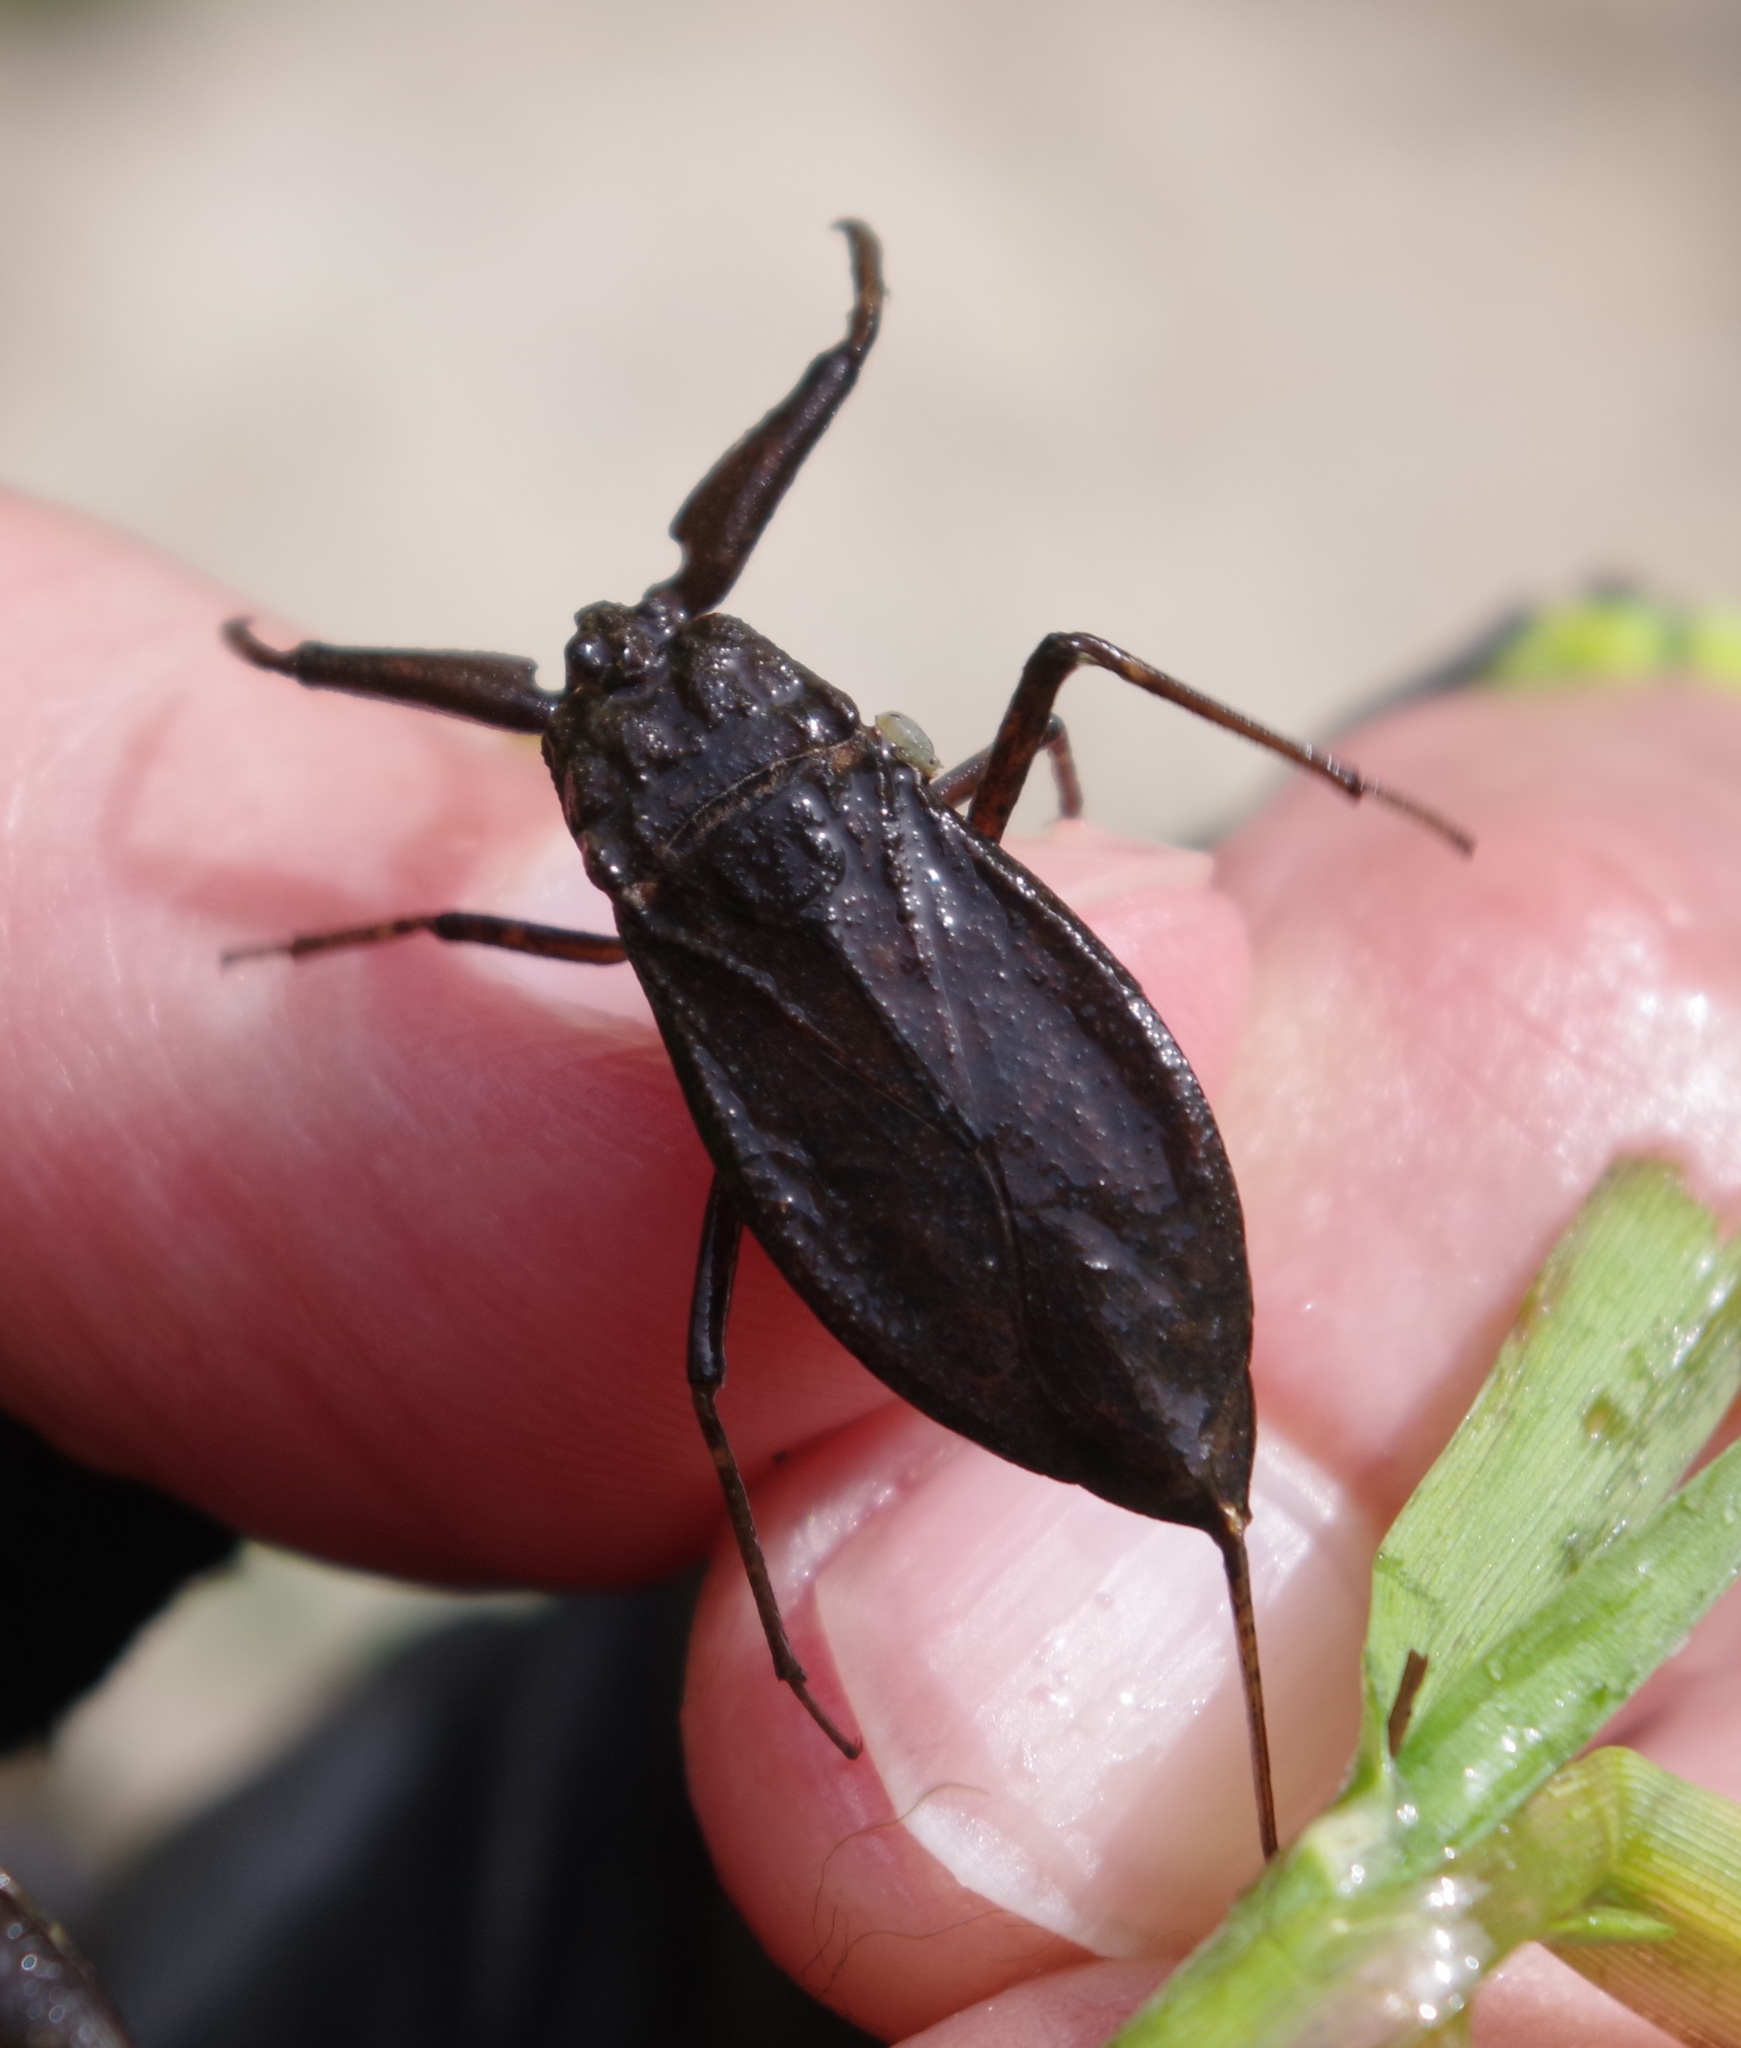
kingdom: Animalia
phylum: Arthropoda
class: Insecta
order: Hemiptera
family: Nepidae
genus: Nepa
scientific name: Nepa cinerea
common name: Water scorpion
